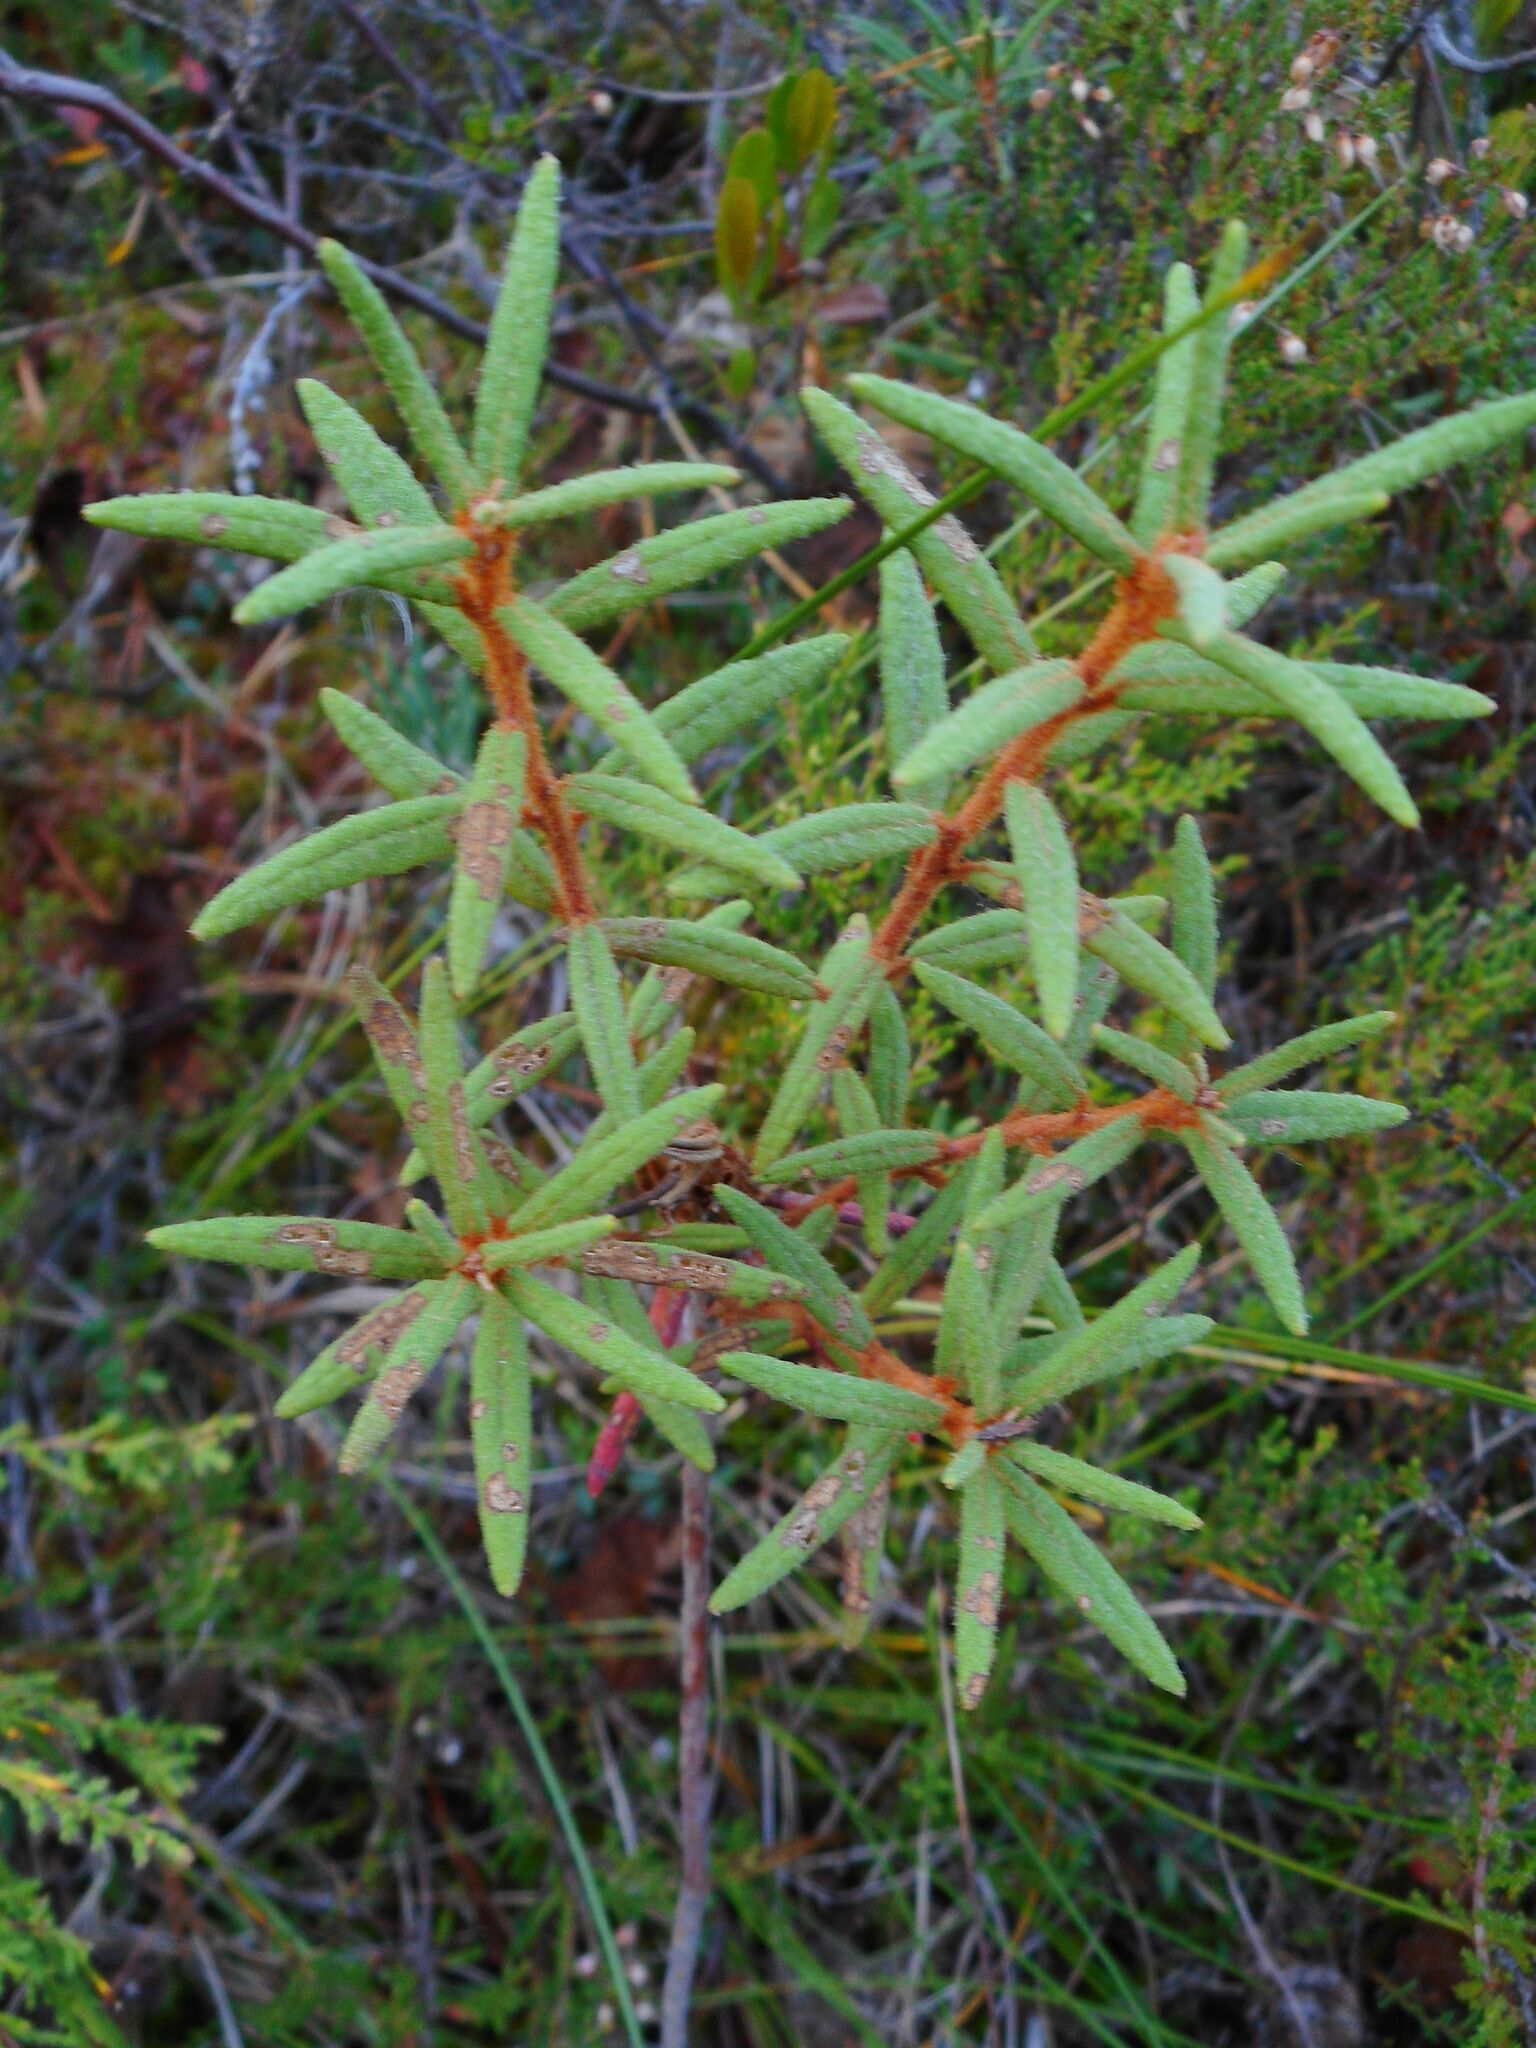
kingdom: Plantae
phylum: Tracheophyta
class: Magnoliopsida
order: Ericales
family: Ericaceae
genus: Rhododendron
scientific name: Rhododendron tomentosum
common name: Marsh labrador tea
